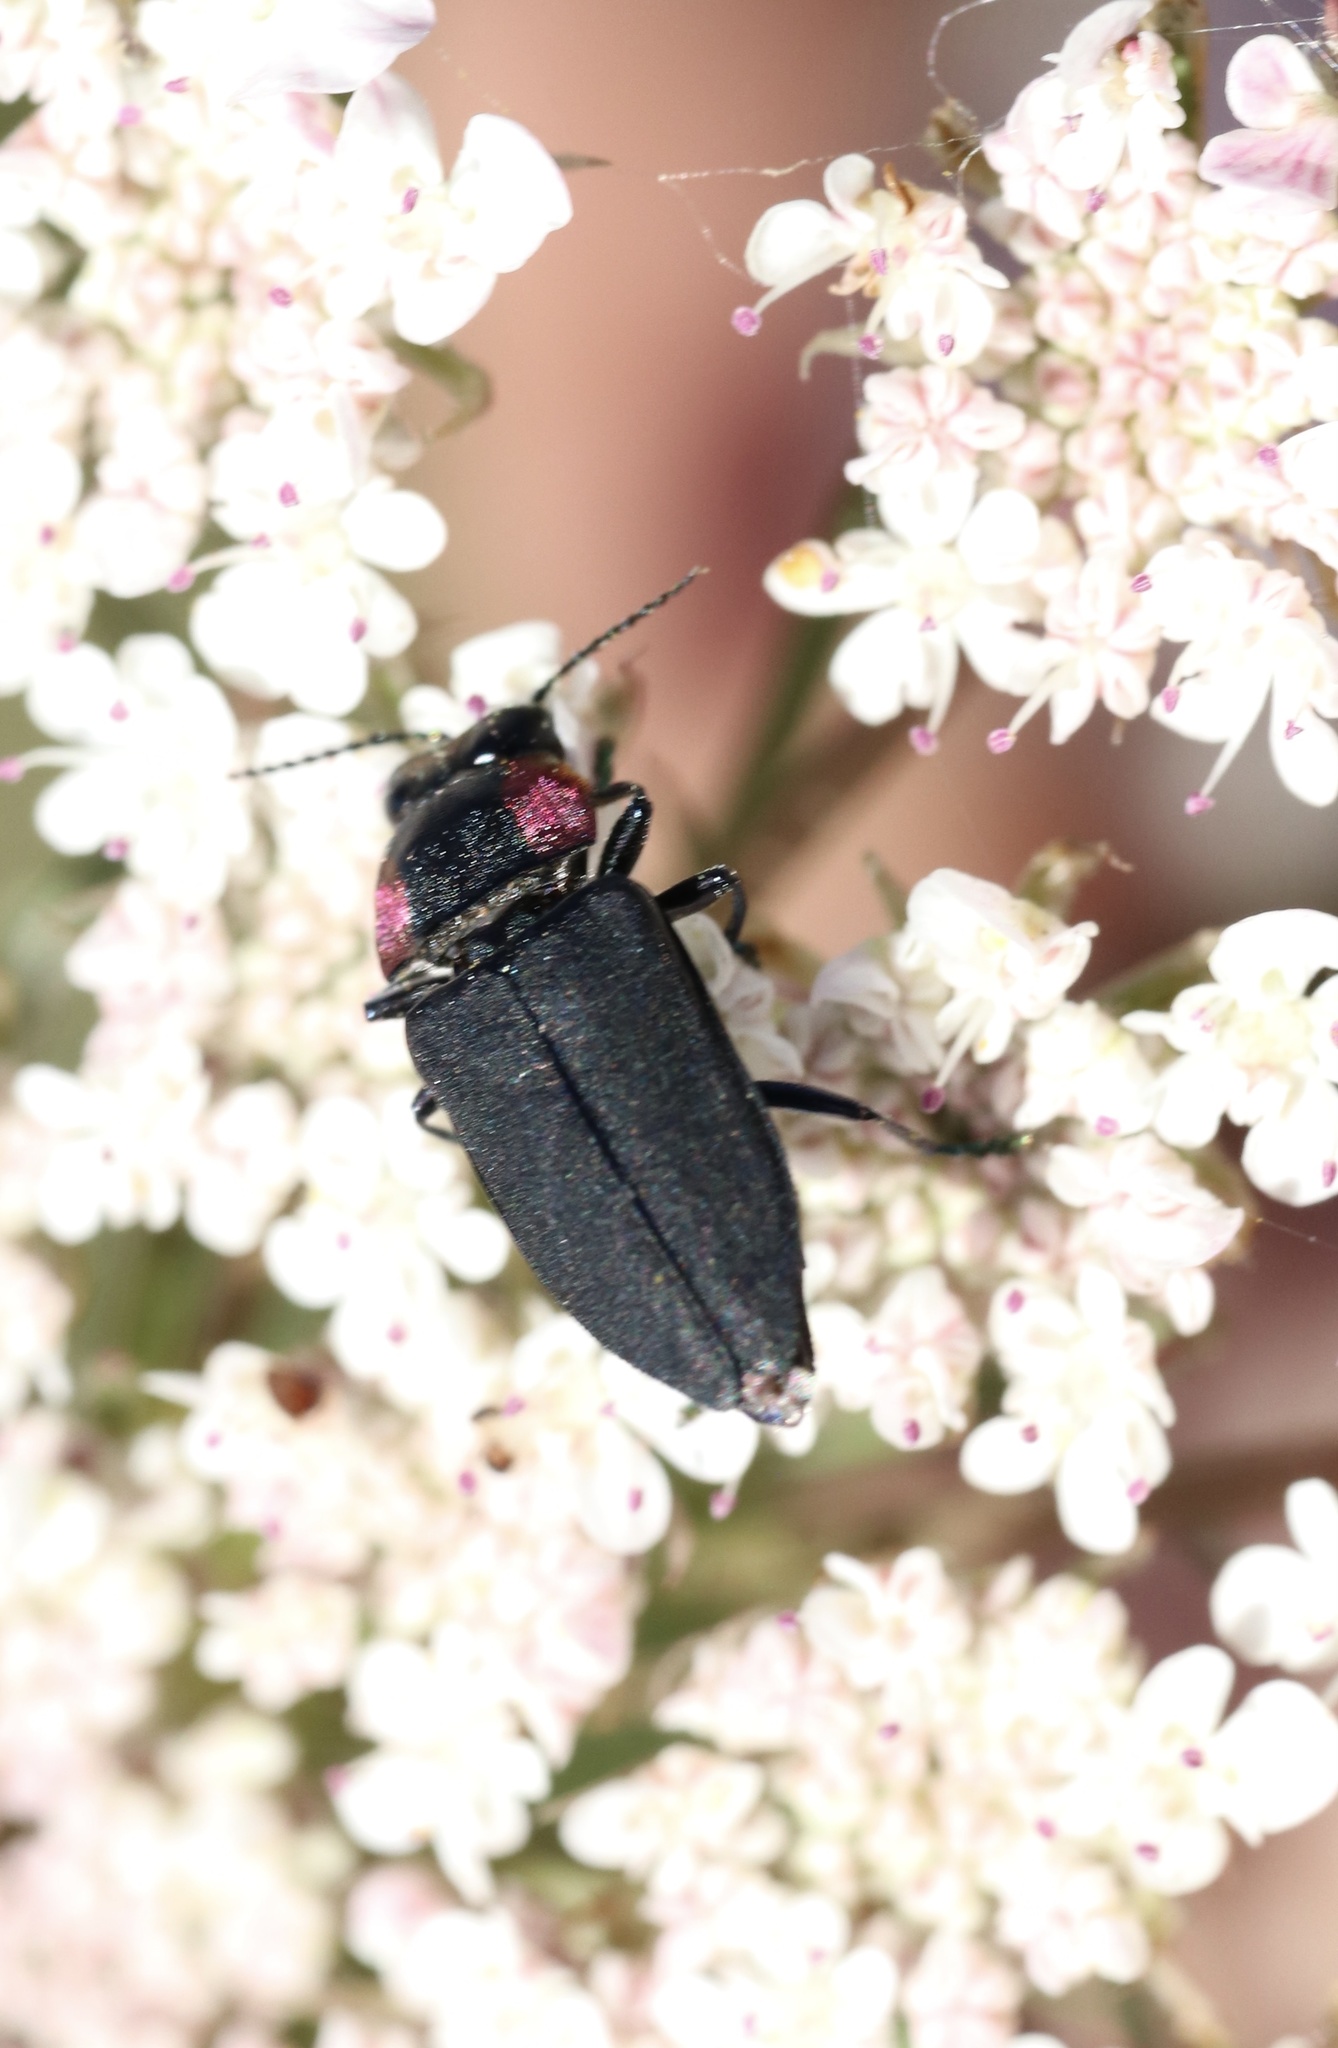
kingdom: Animalia
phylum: Arthropoda
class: Insecta
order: Coleoptera
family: Buprestidae
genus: Romanophora
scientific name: Romanophora verecunda
